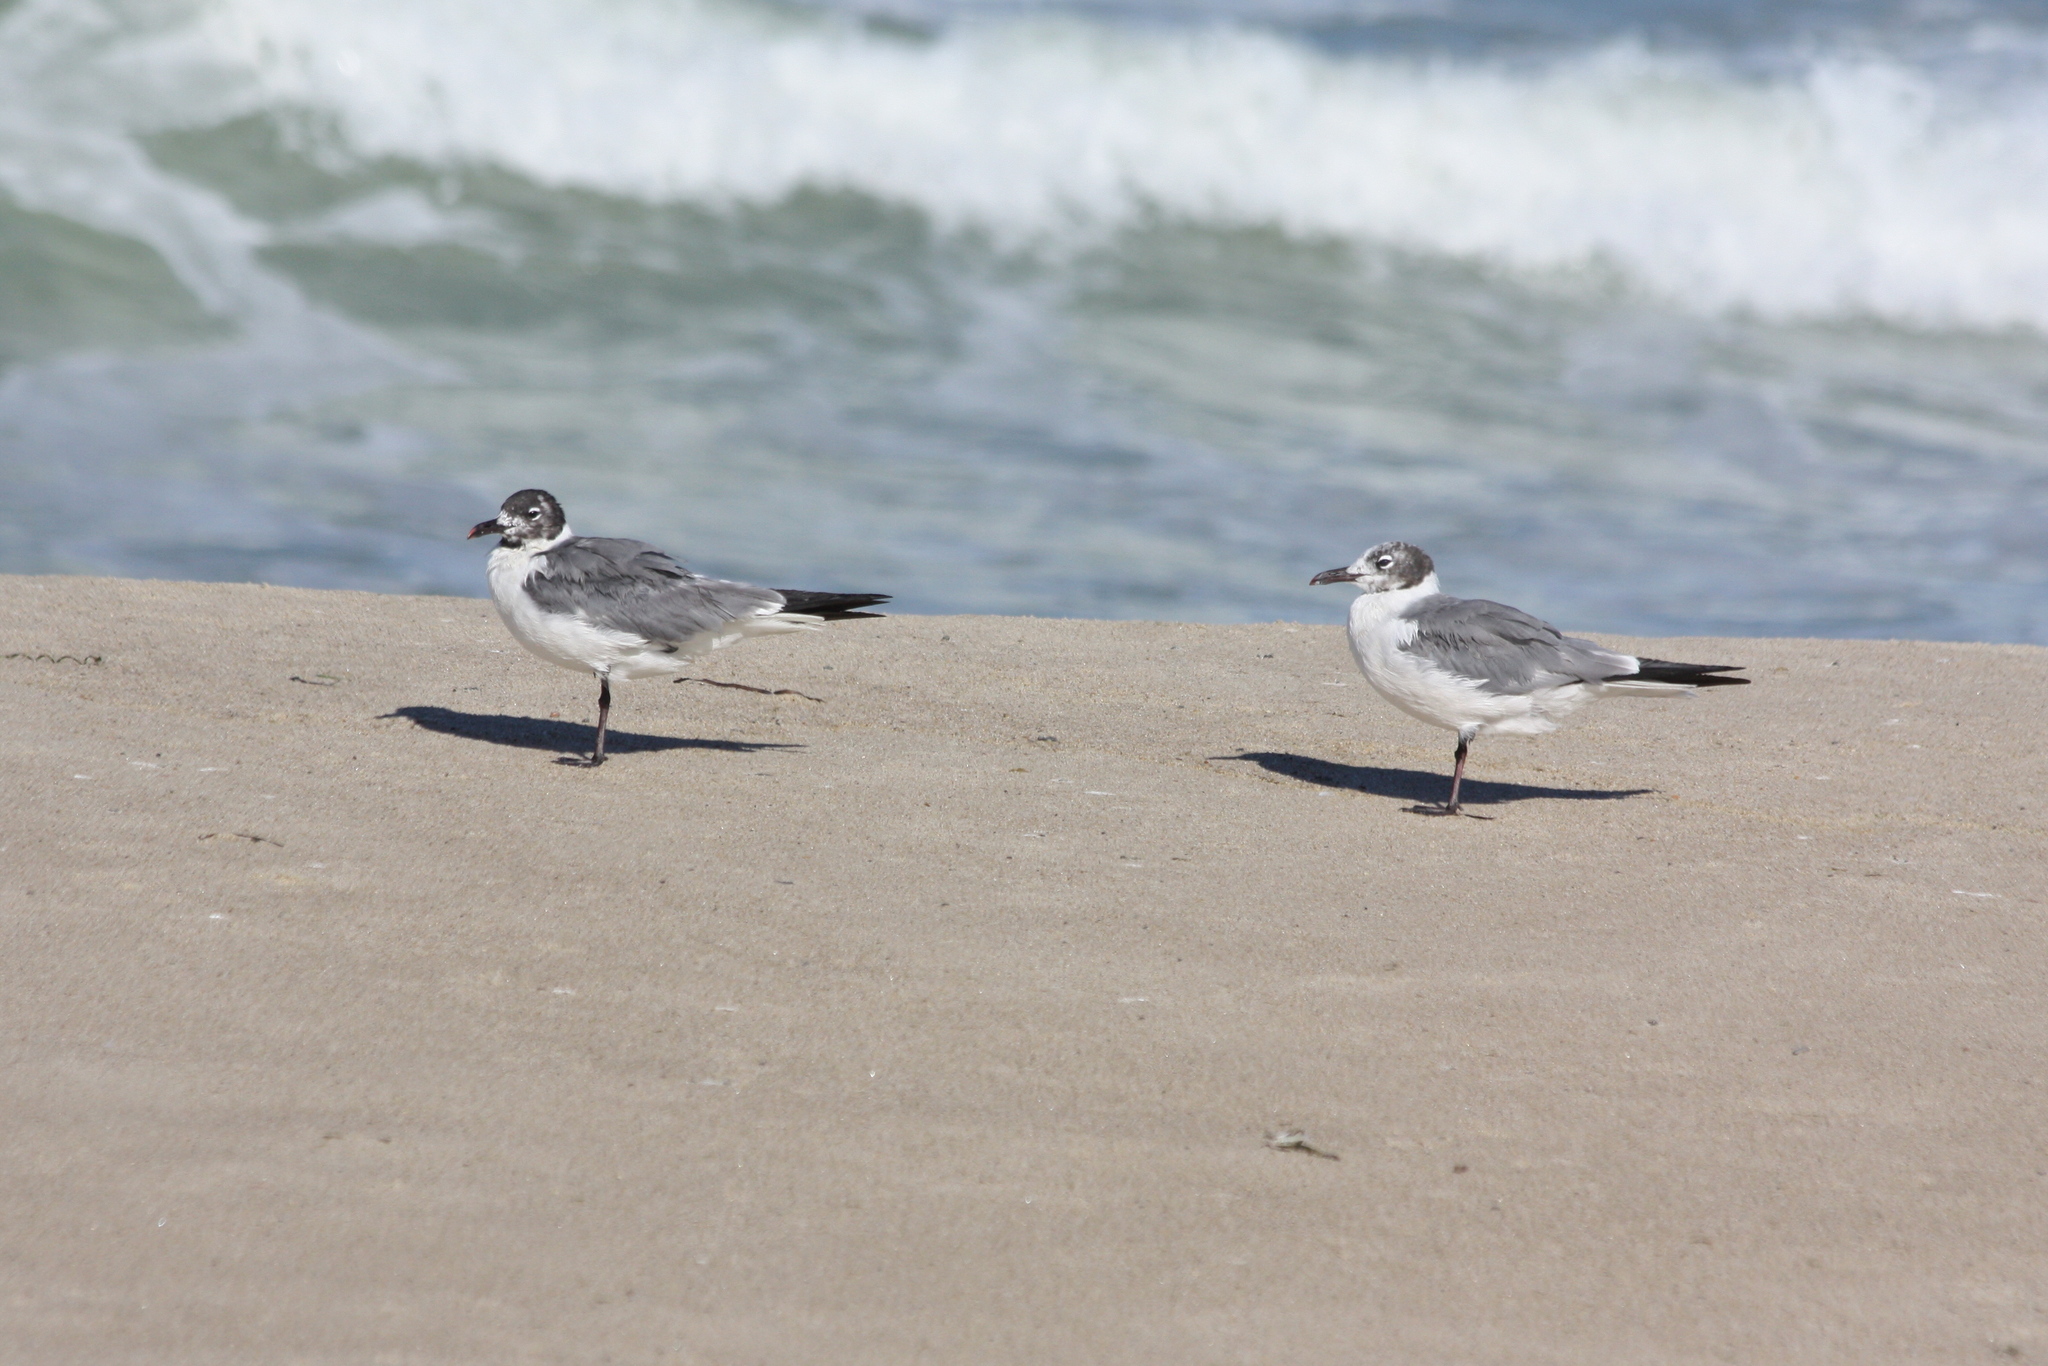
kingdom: Animalia
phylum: Chordata
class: Aves
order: Charadriiformes
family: Laridae
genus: Leucophaeus
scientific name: Leucophaeus atricilla
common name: Laughing gull
